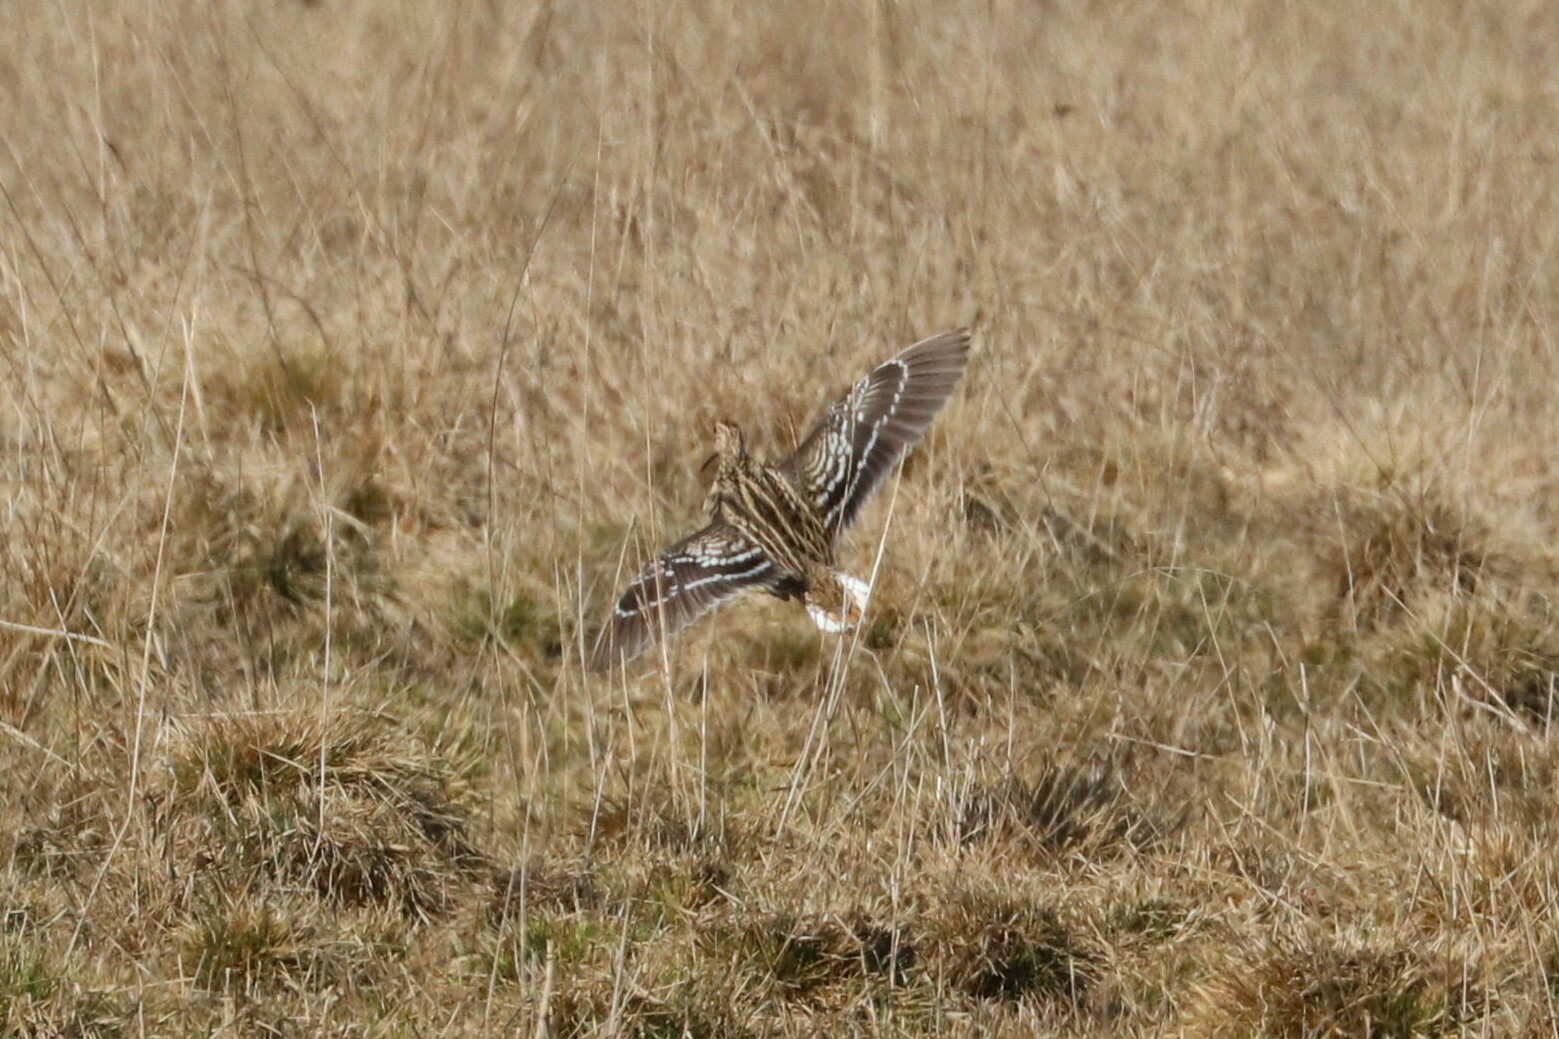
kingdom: Animalia
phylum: Chordata
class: Aves
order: Charadriiformes
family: Scolopacidae
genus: Gallinago
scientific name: Gallinago gallinago
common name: Common snipe
